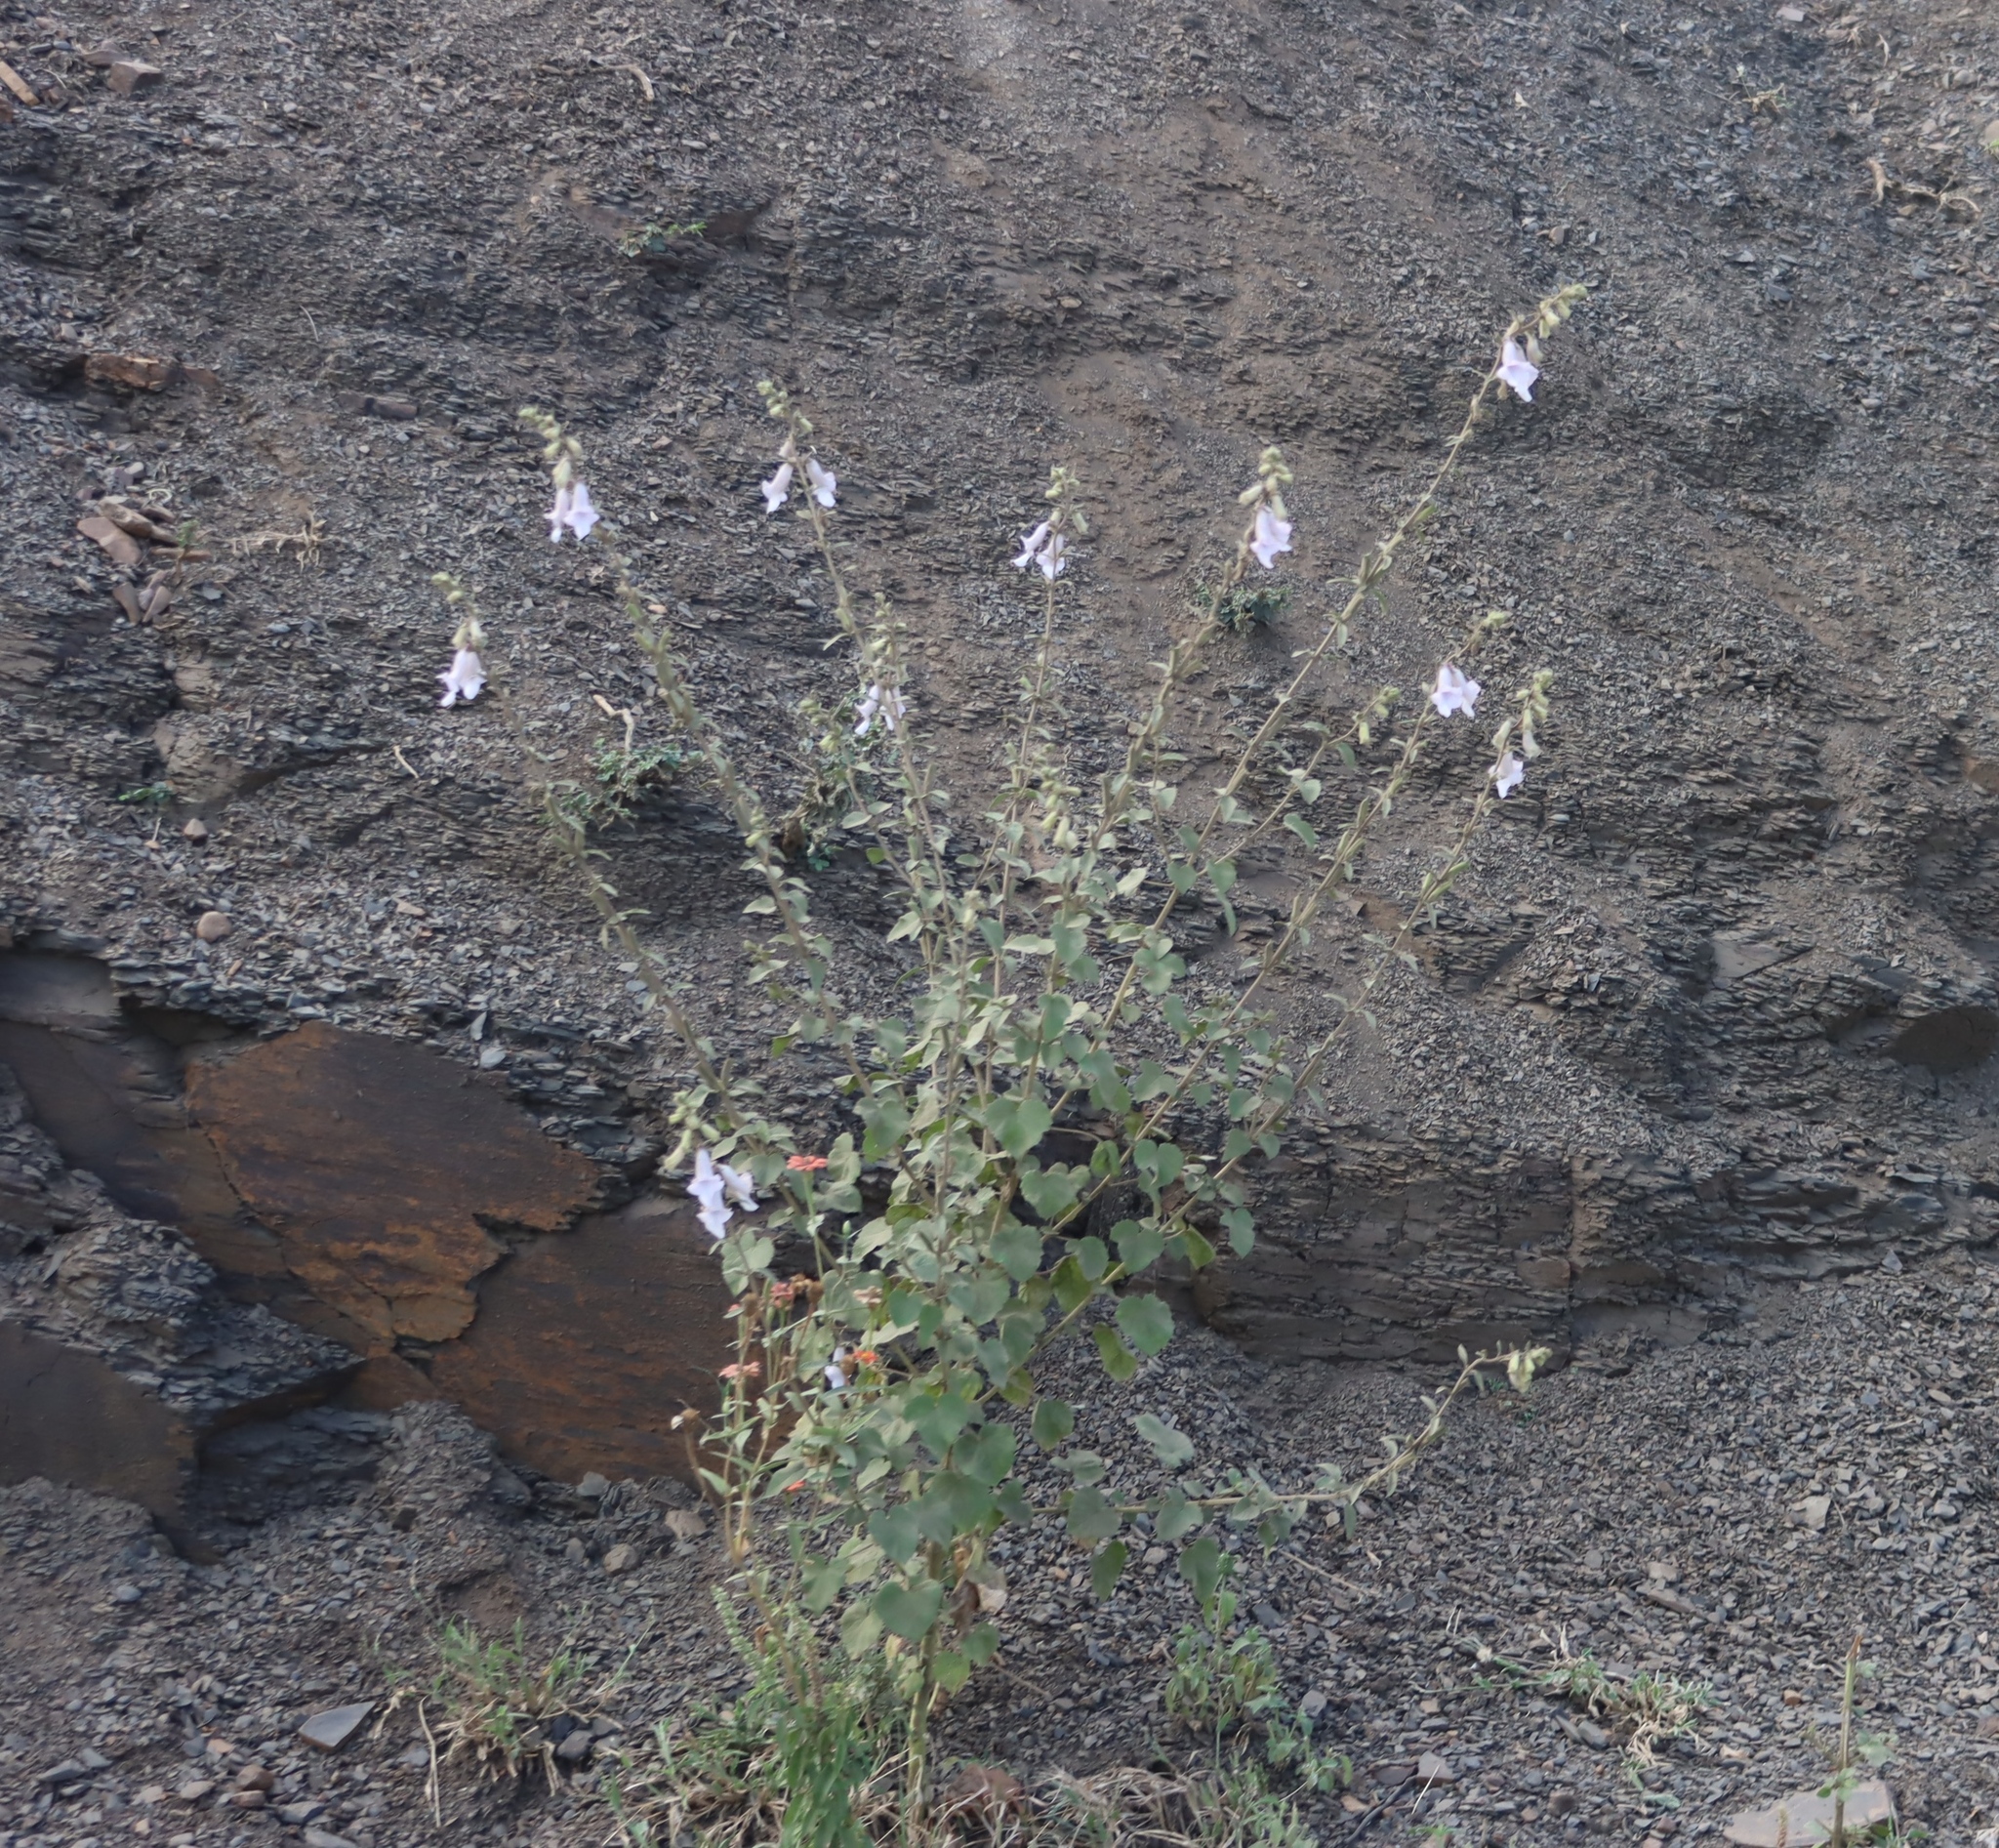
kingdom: Plantae
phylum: Tracheophyta
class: Magnoliopsida
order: Lamiales
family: Pedaliaceae
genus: Sesamum
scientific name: Sesamum trilobum
